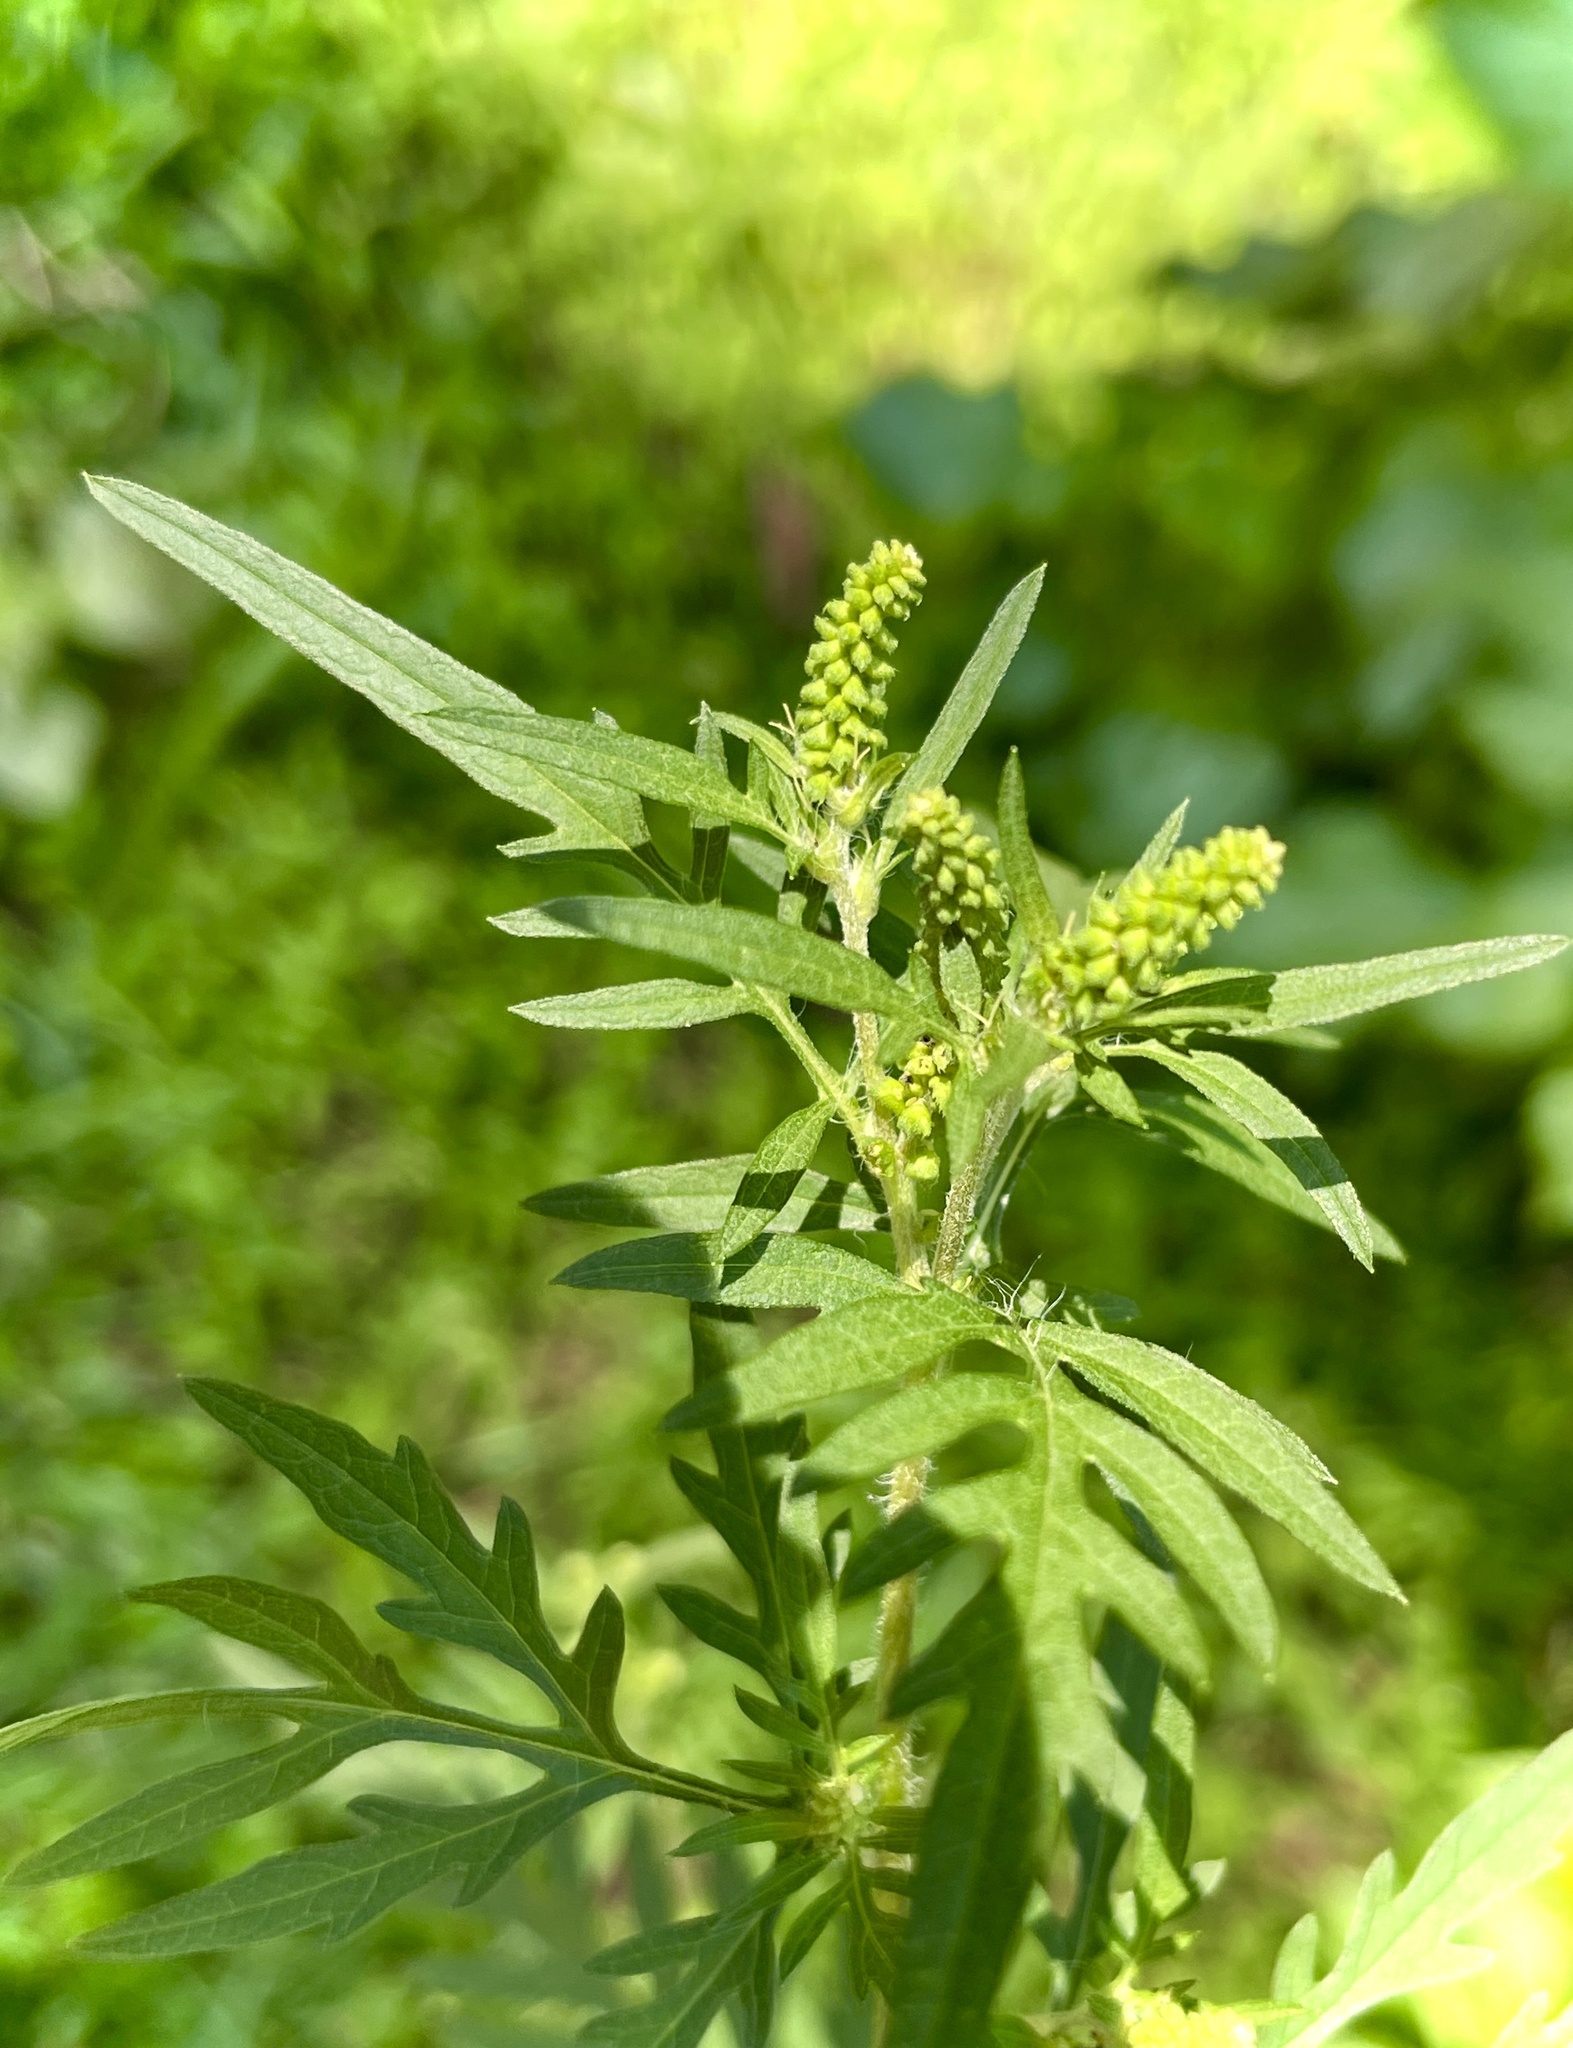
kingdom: Plantae
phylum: Tracheophyta
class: Magnoliopsida
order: Asterales
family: Asteraceae
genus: Ambrosia
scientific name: Ambrosia artemisiifolia
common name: Annual ragweed
